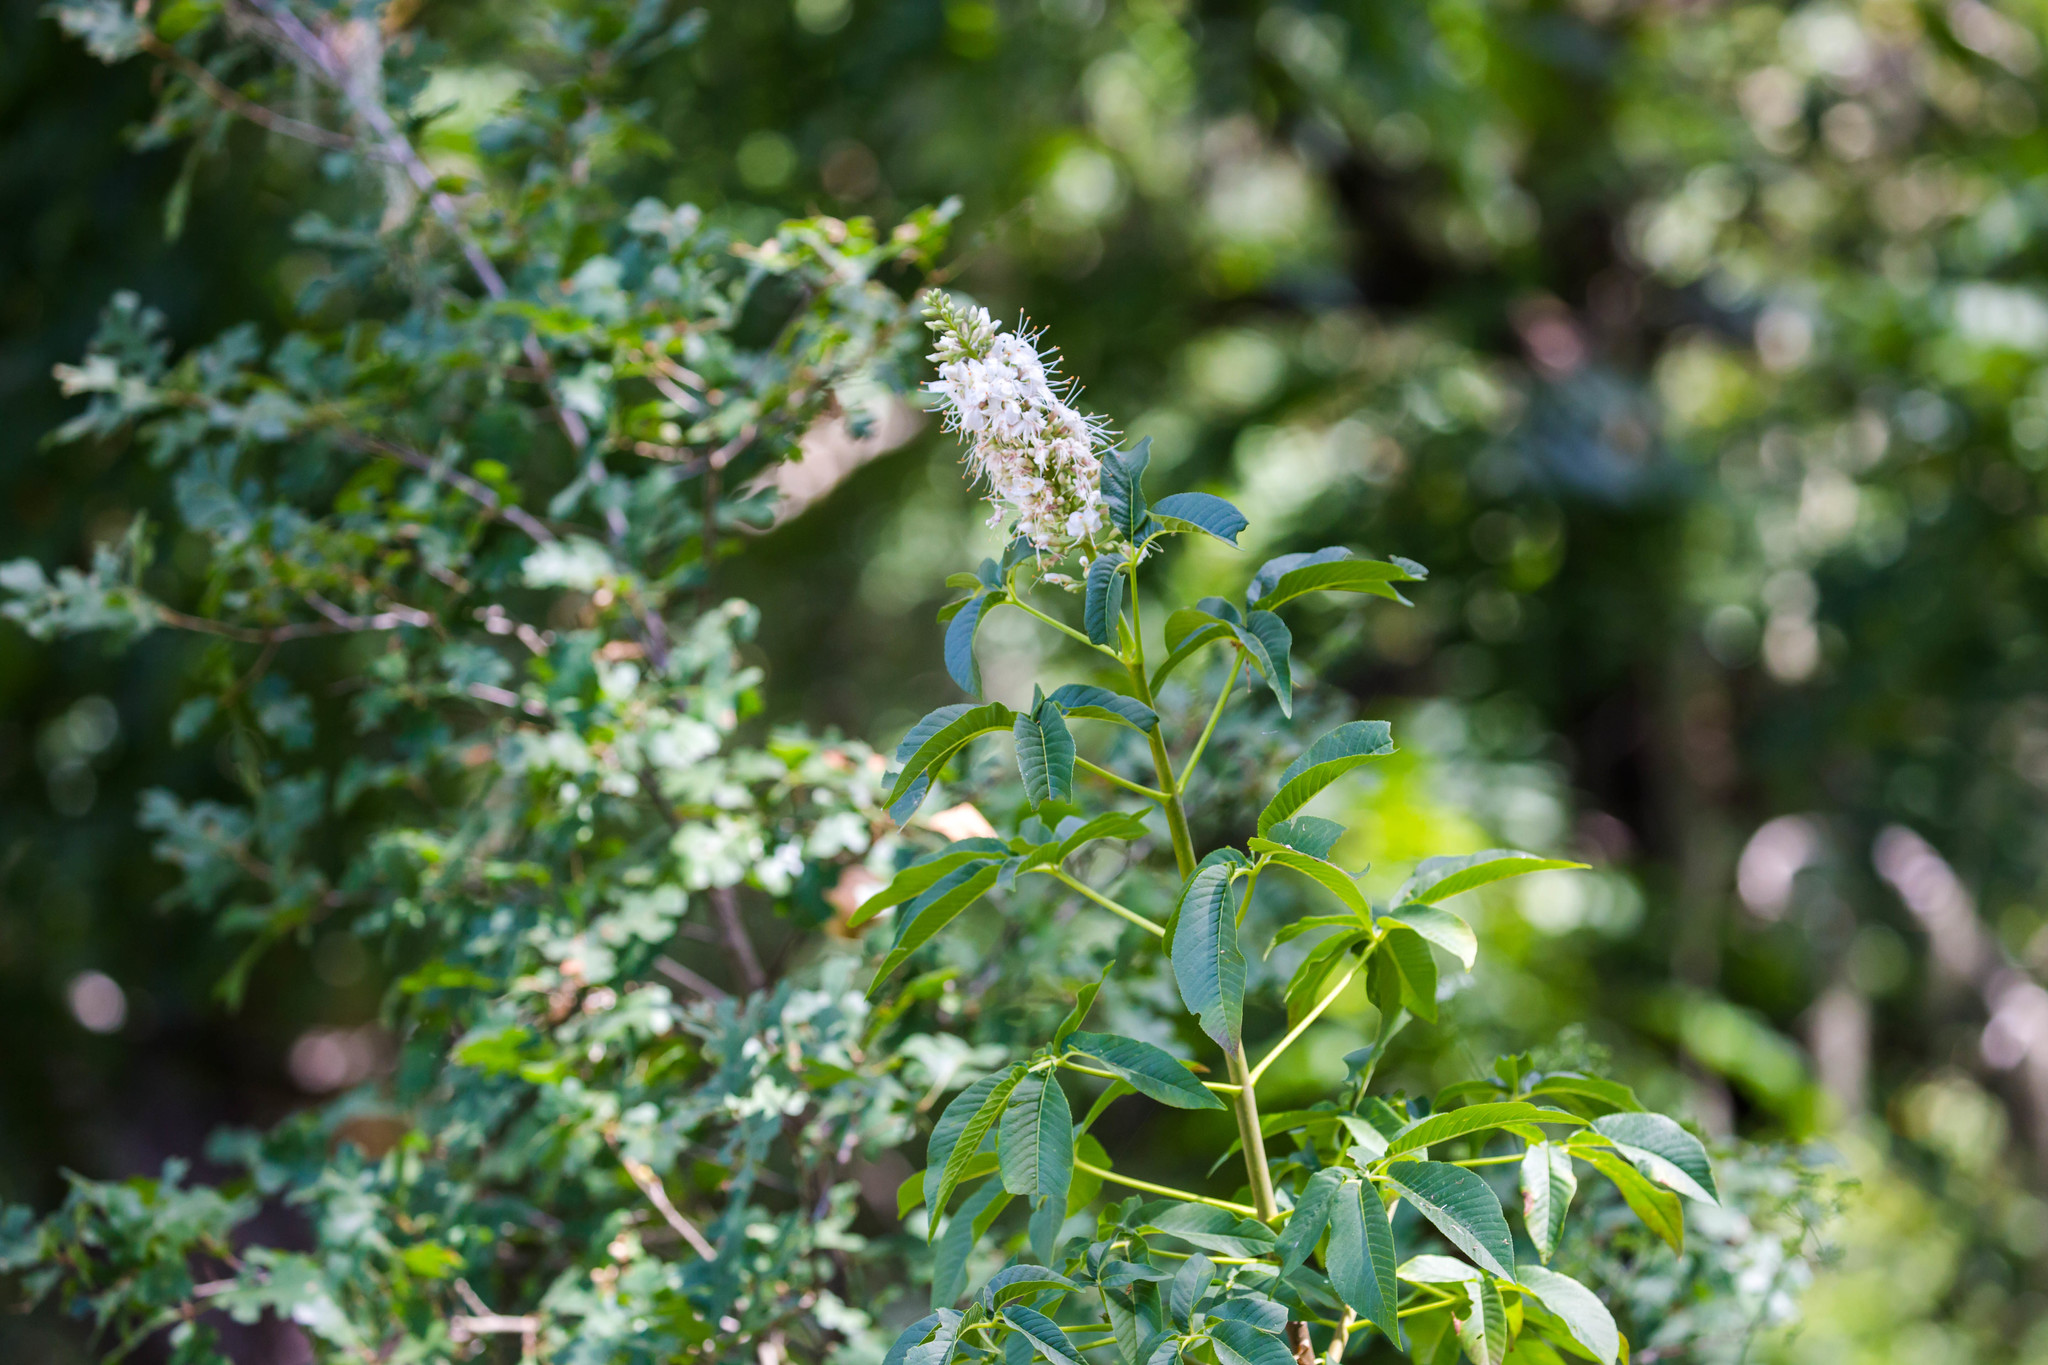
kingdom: Plantae
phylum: Tracheophyta
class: Magnoliopsida
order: Sapindales
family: Sapindaceae
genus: Aesculus
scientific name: Aesculus californica
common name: California buckeye
